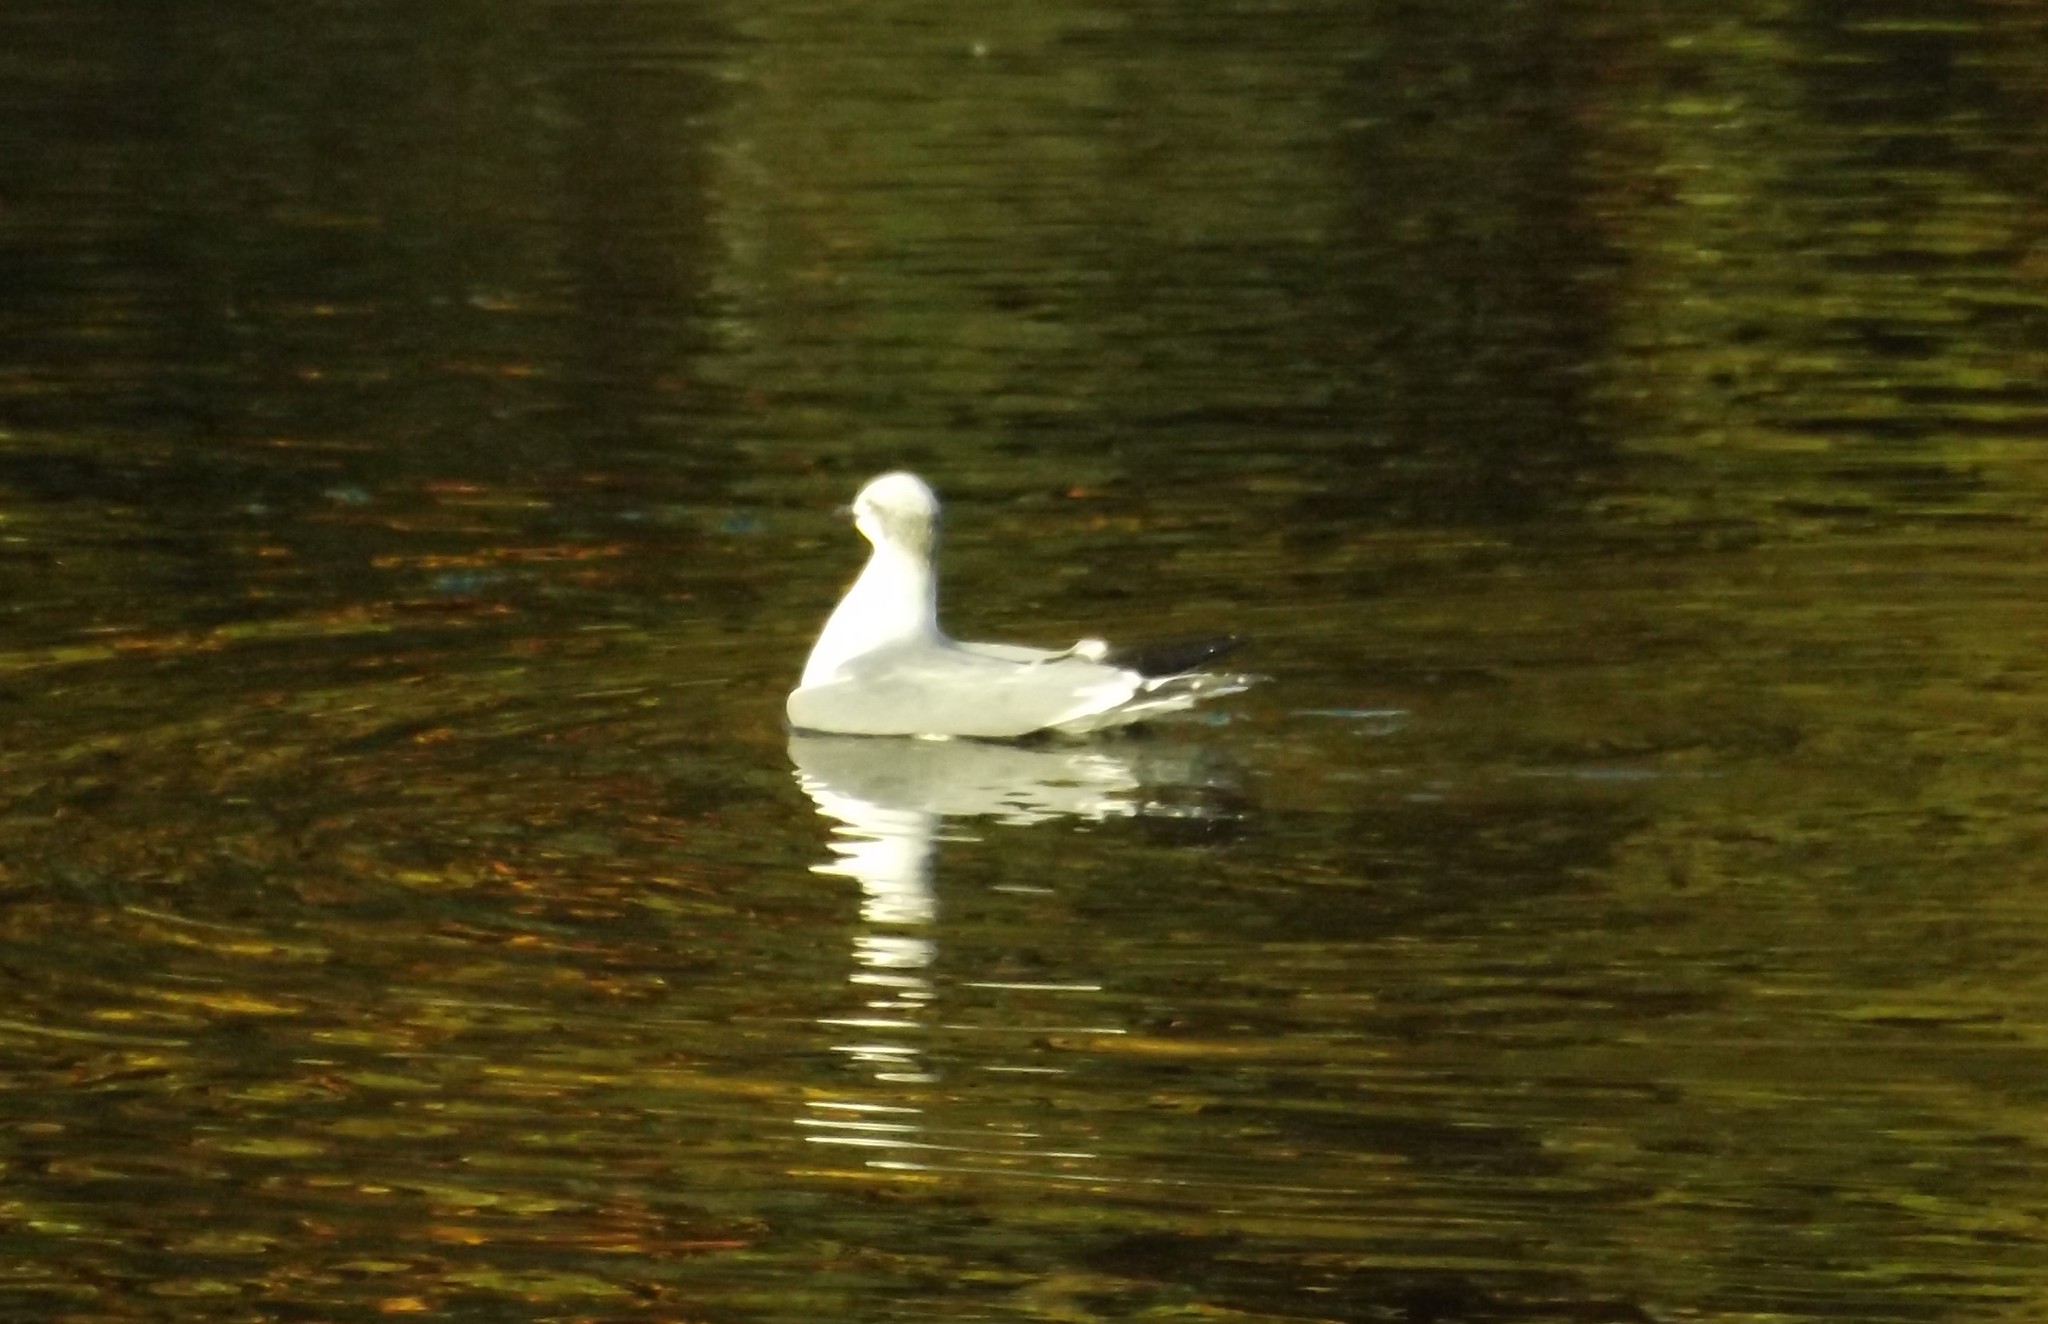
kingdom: Animalia
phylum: Chordata
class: Aves
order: Charadriiformes
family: Laridae
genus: Leucophaeus
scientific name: Leucophaeus atricilla
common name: Laughing gull
